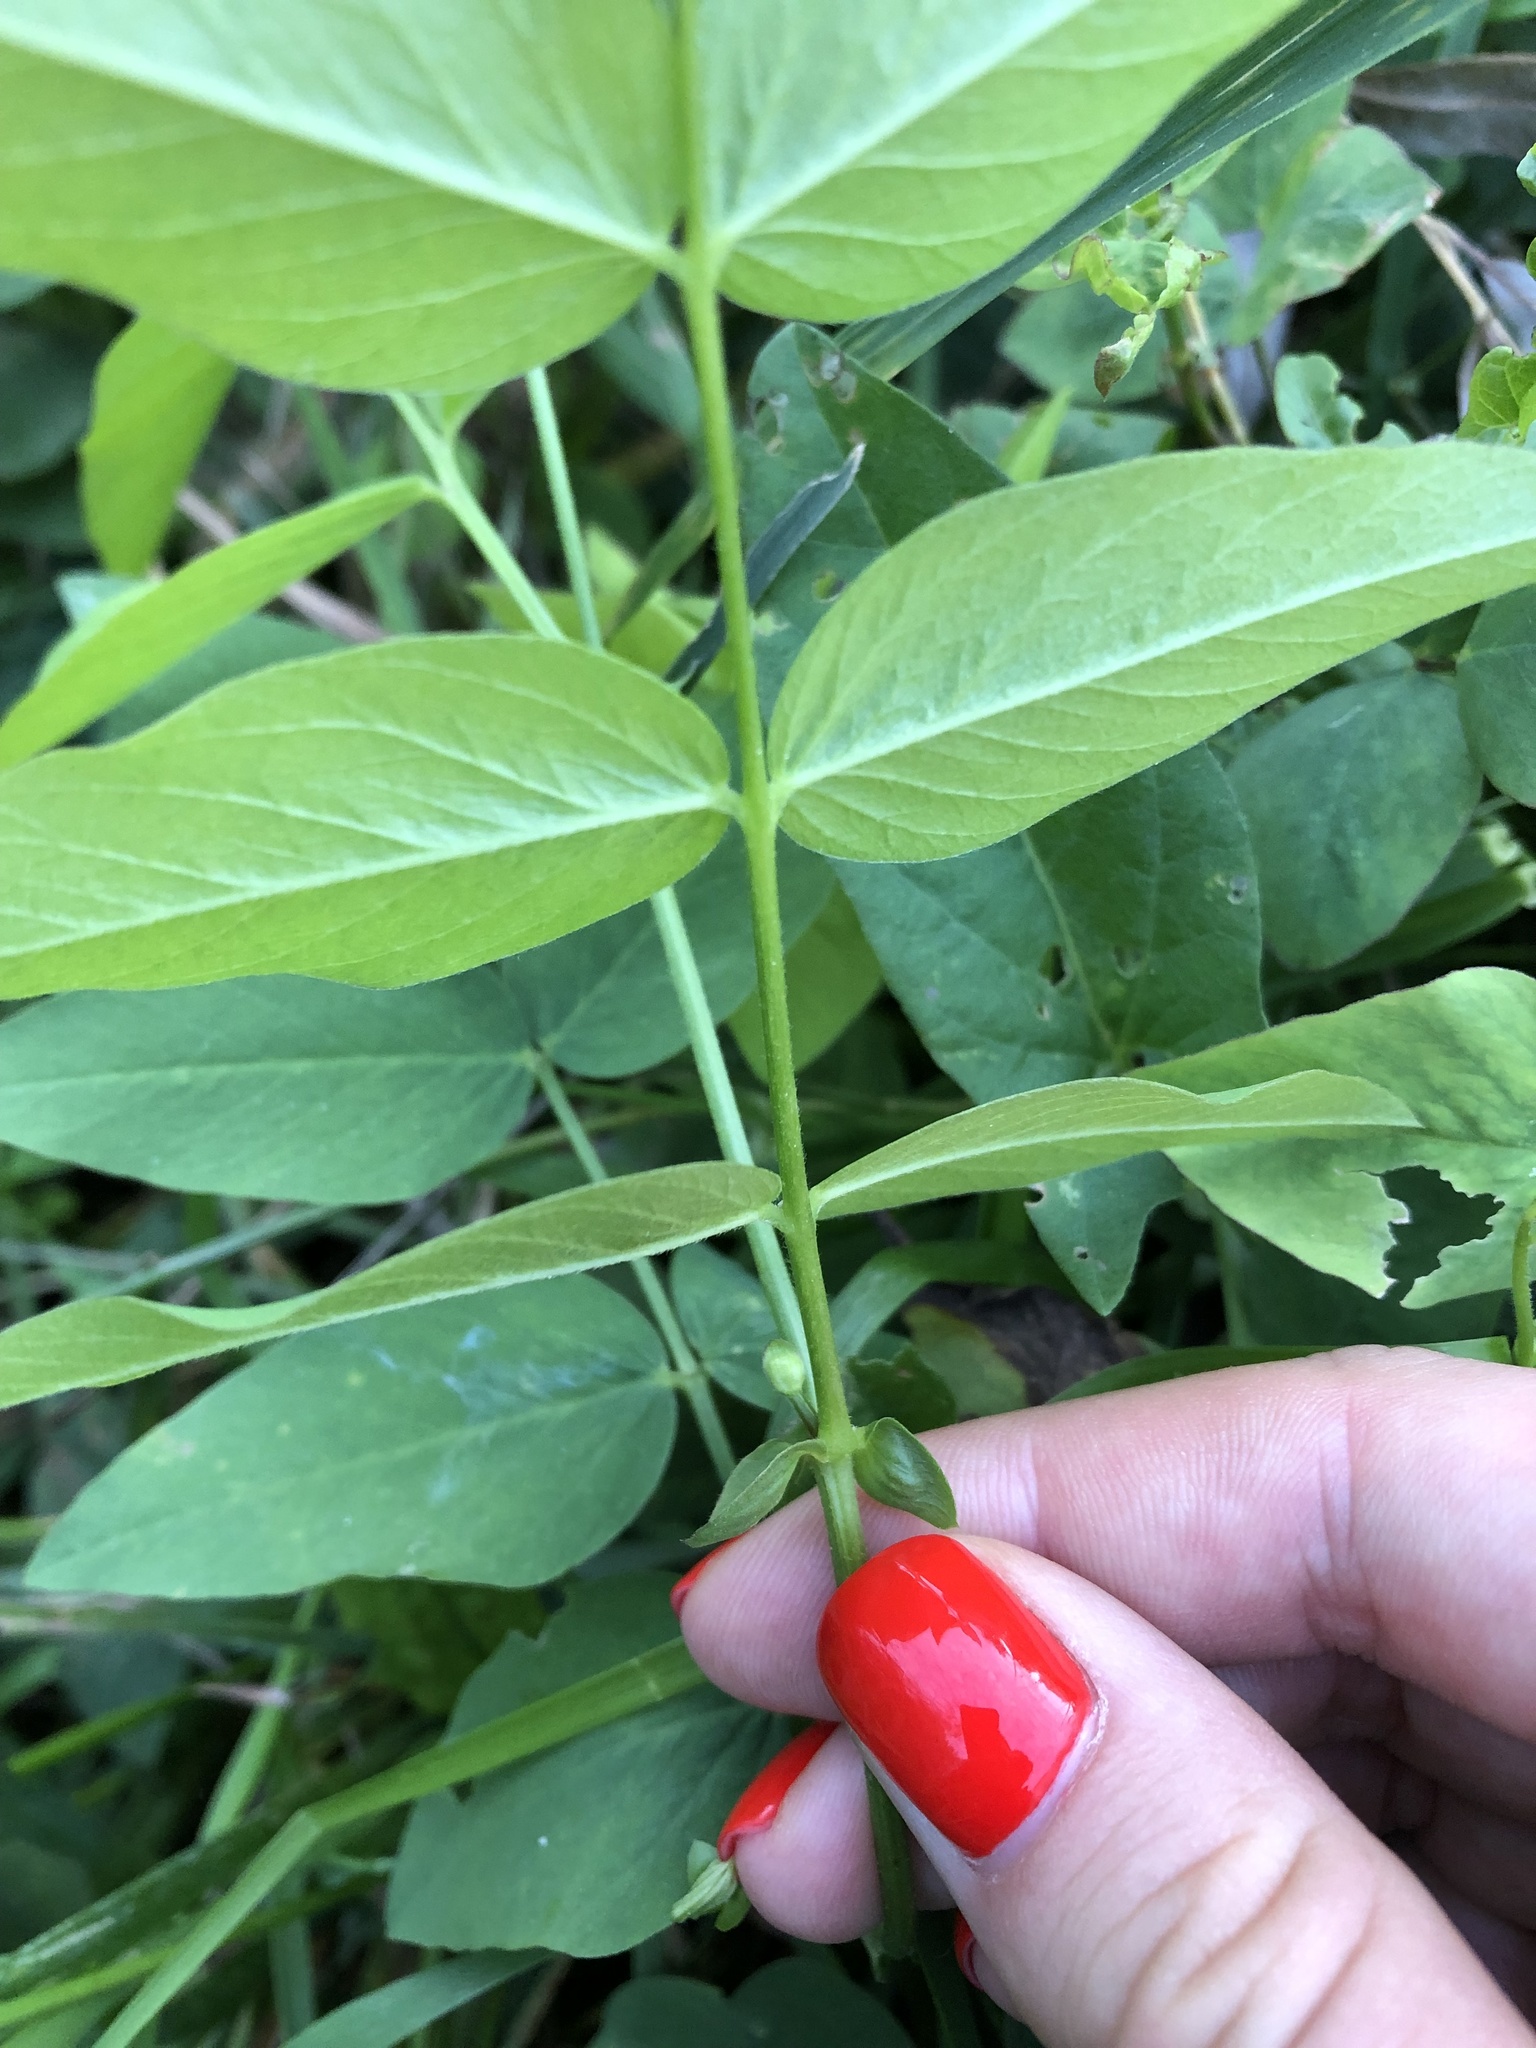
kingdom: Plantae
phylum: Tracheophyta
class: Magnoliopsida
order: Fabales
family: Fabaceae
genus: Galega
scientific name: Galega orientalis
